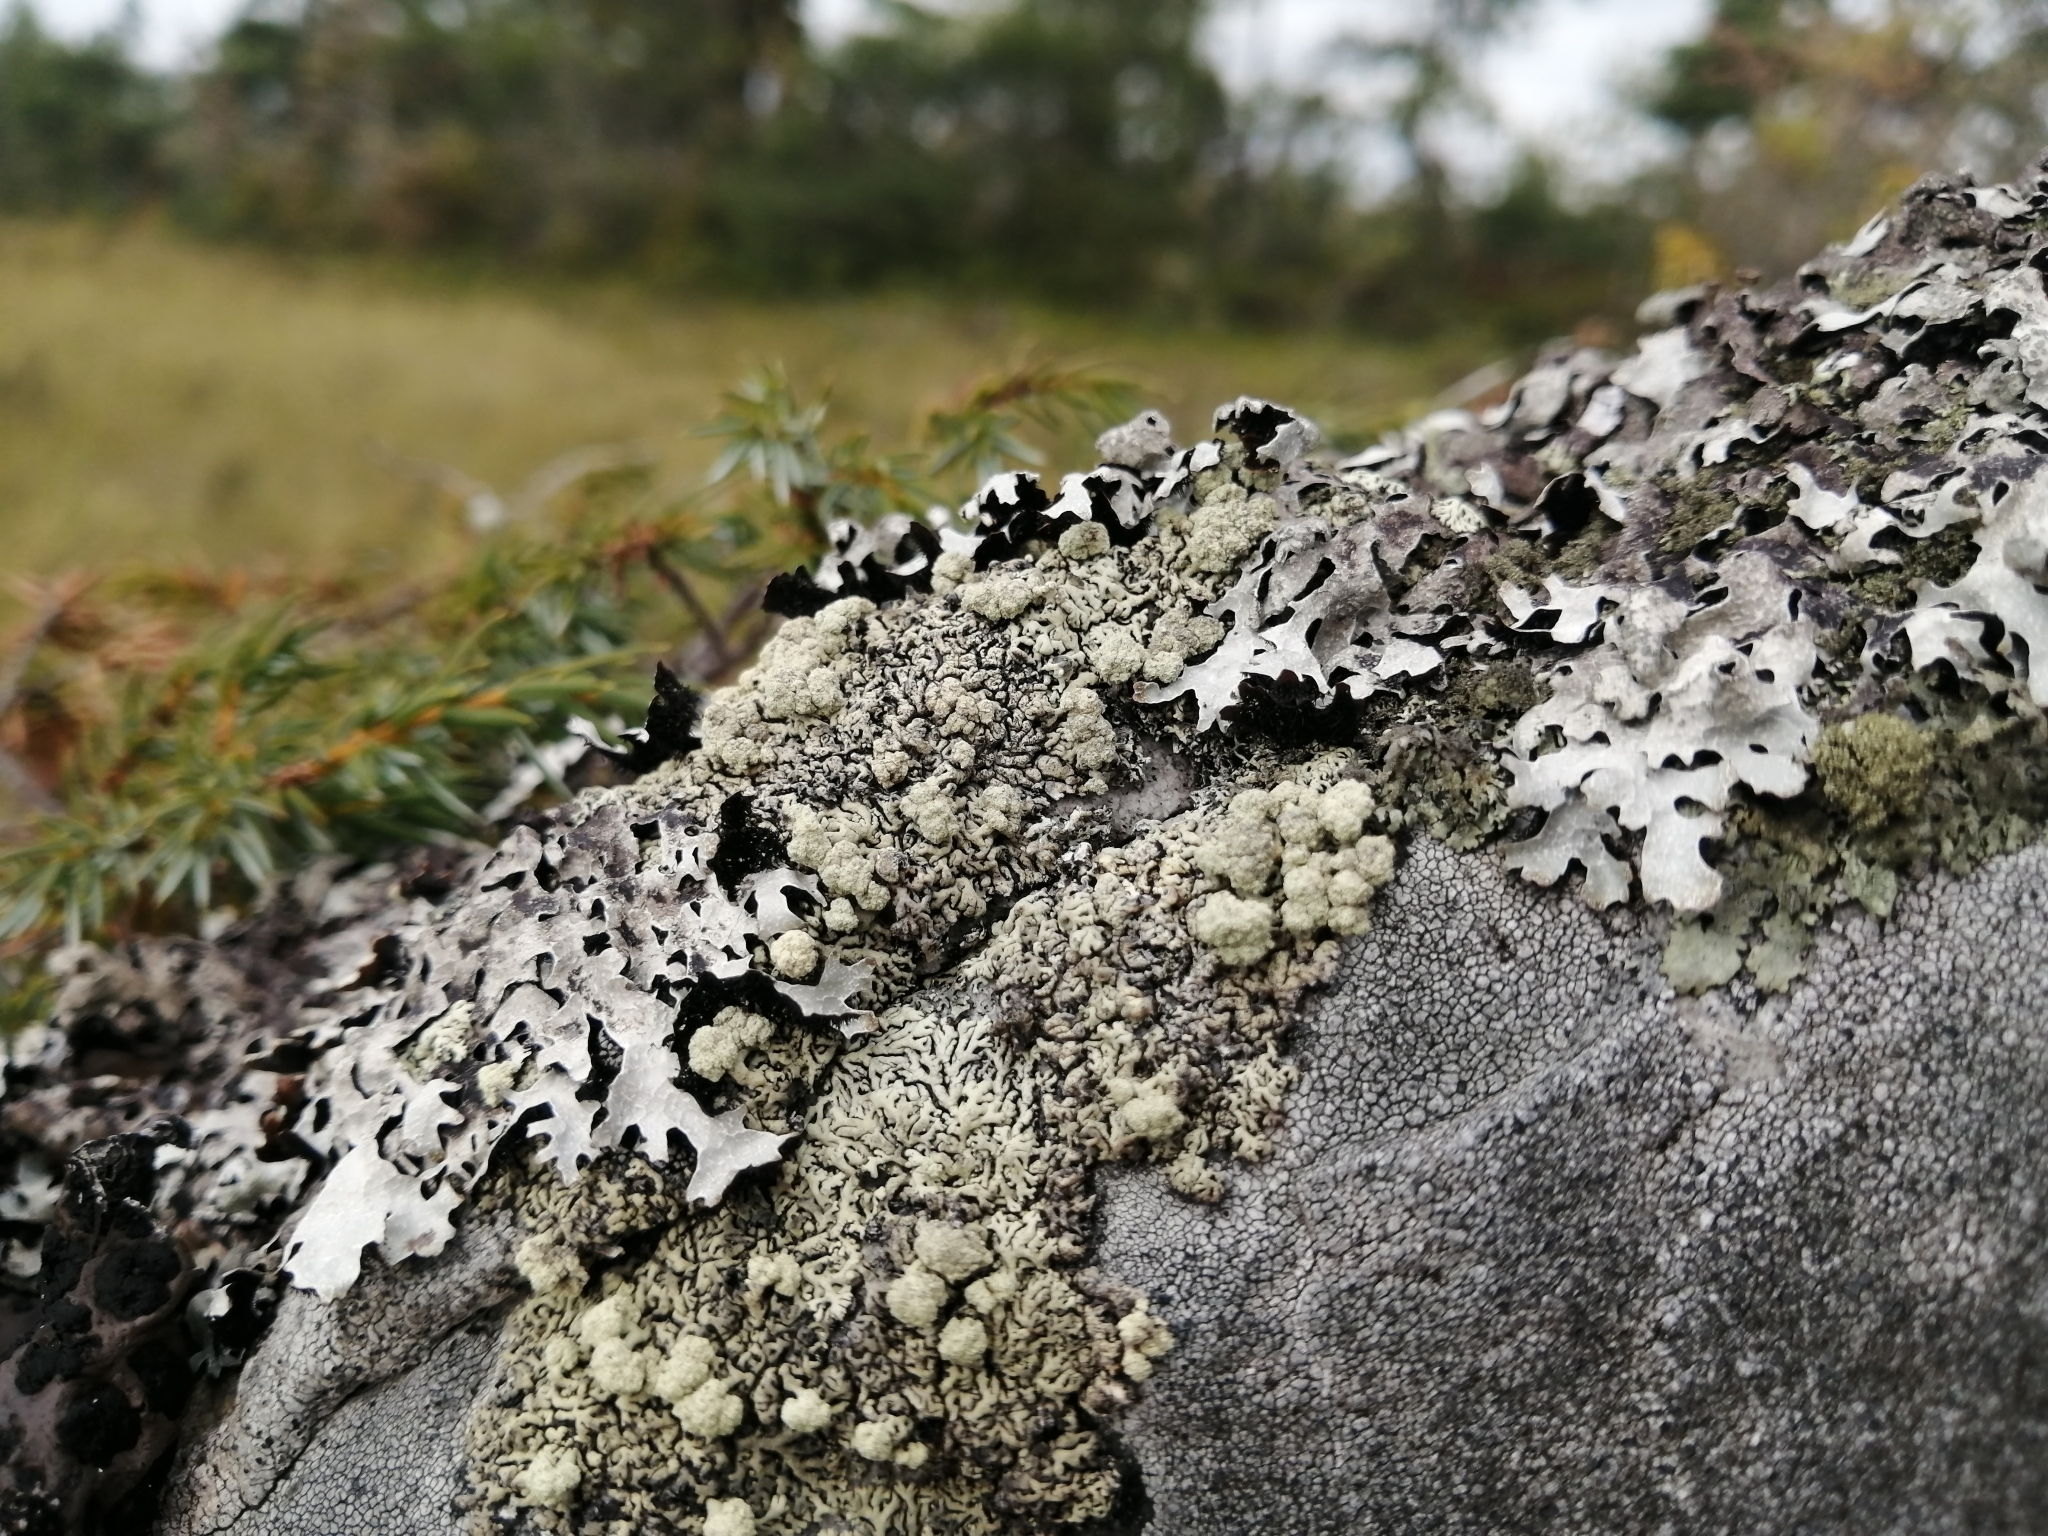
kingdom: Fungi
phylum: Ascomycota
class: Lecanoromycetes
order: Lecanorales
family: Parmeliaceae
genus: Arctoparmelia
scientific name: Arctoparmelia incurva
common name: Bent ring lichen
